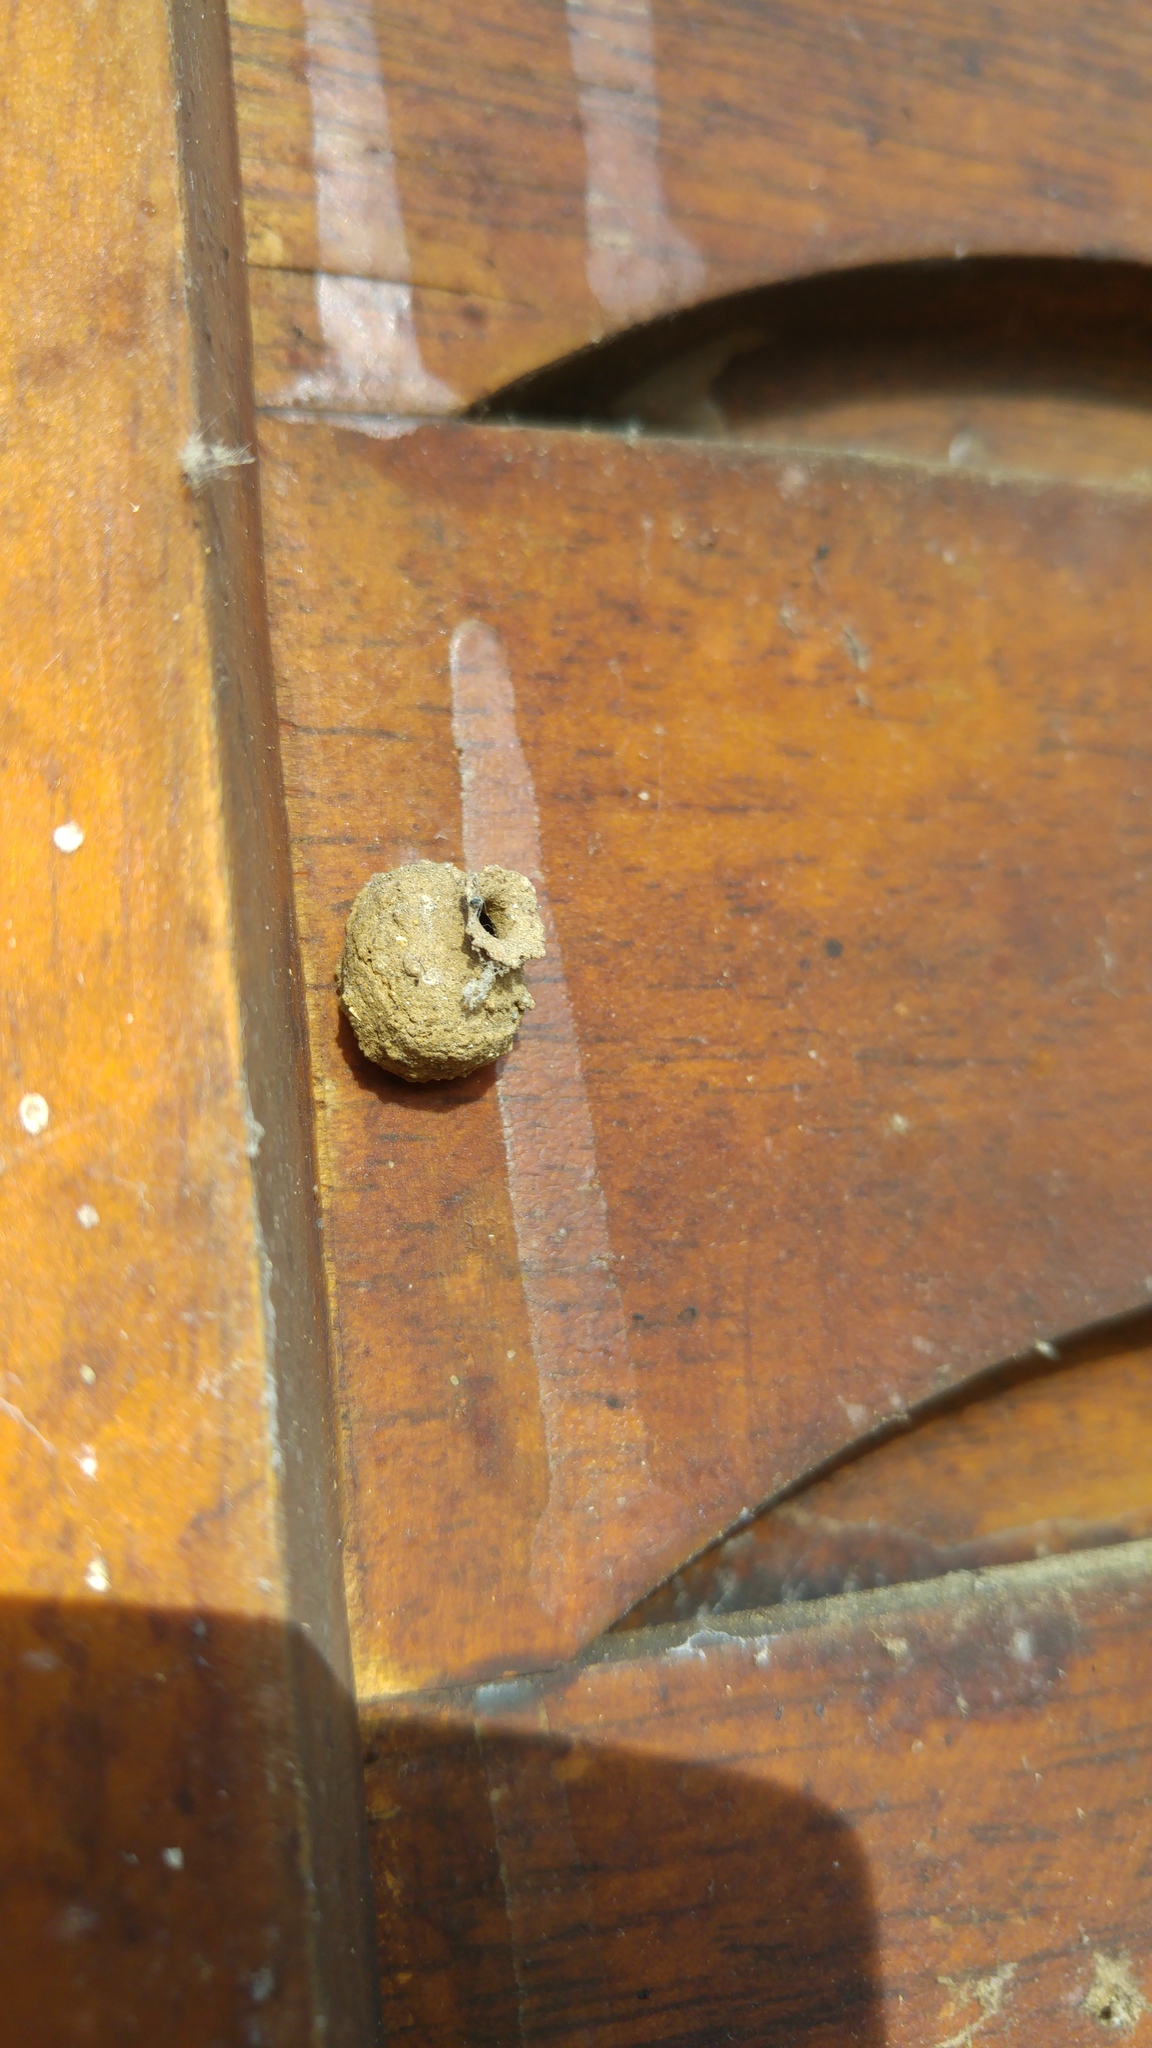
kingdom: Animalia
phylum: Arthropoda
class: Insecta
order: Hymenoptera
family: Eumenidae
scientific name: Eumenidae
